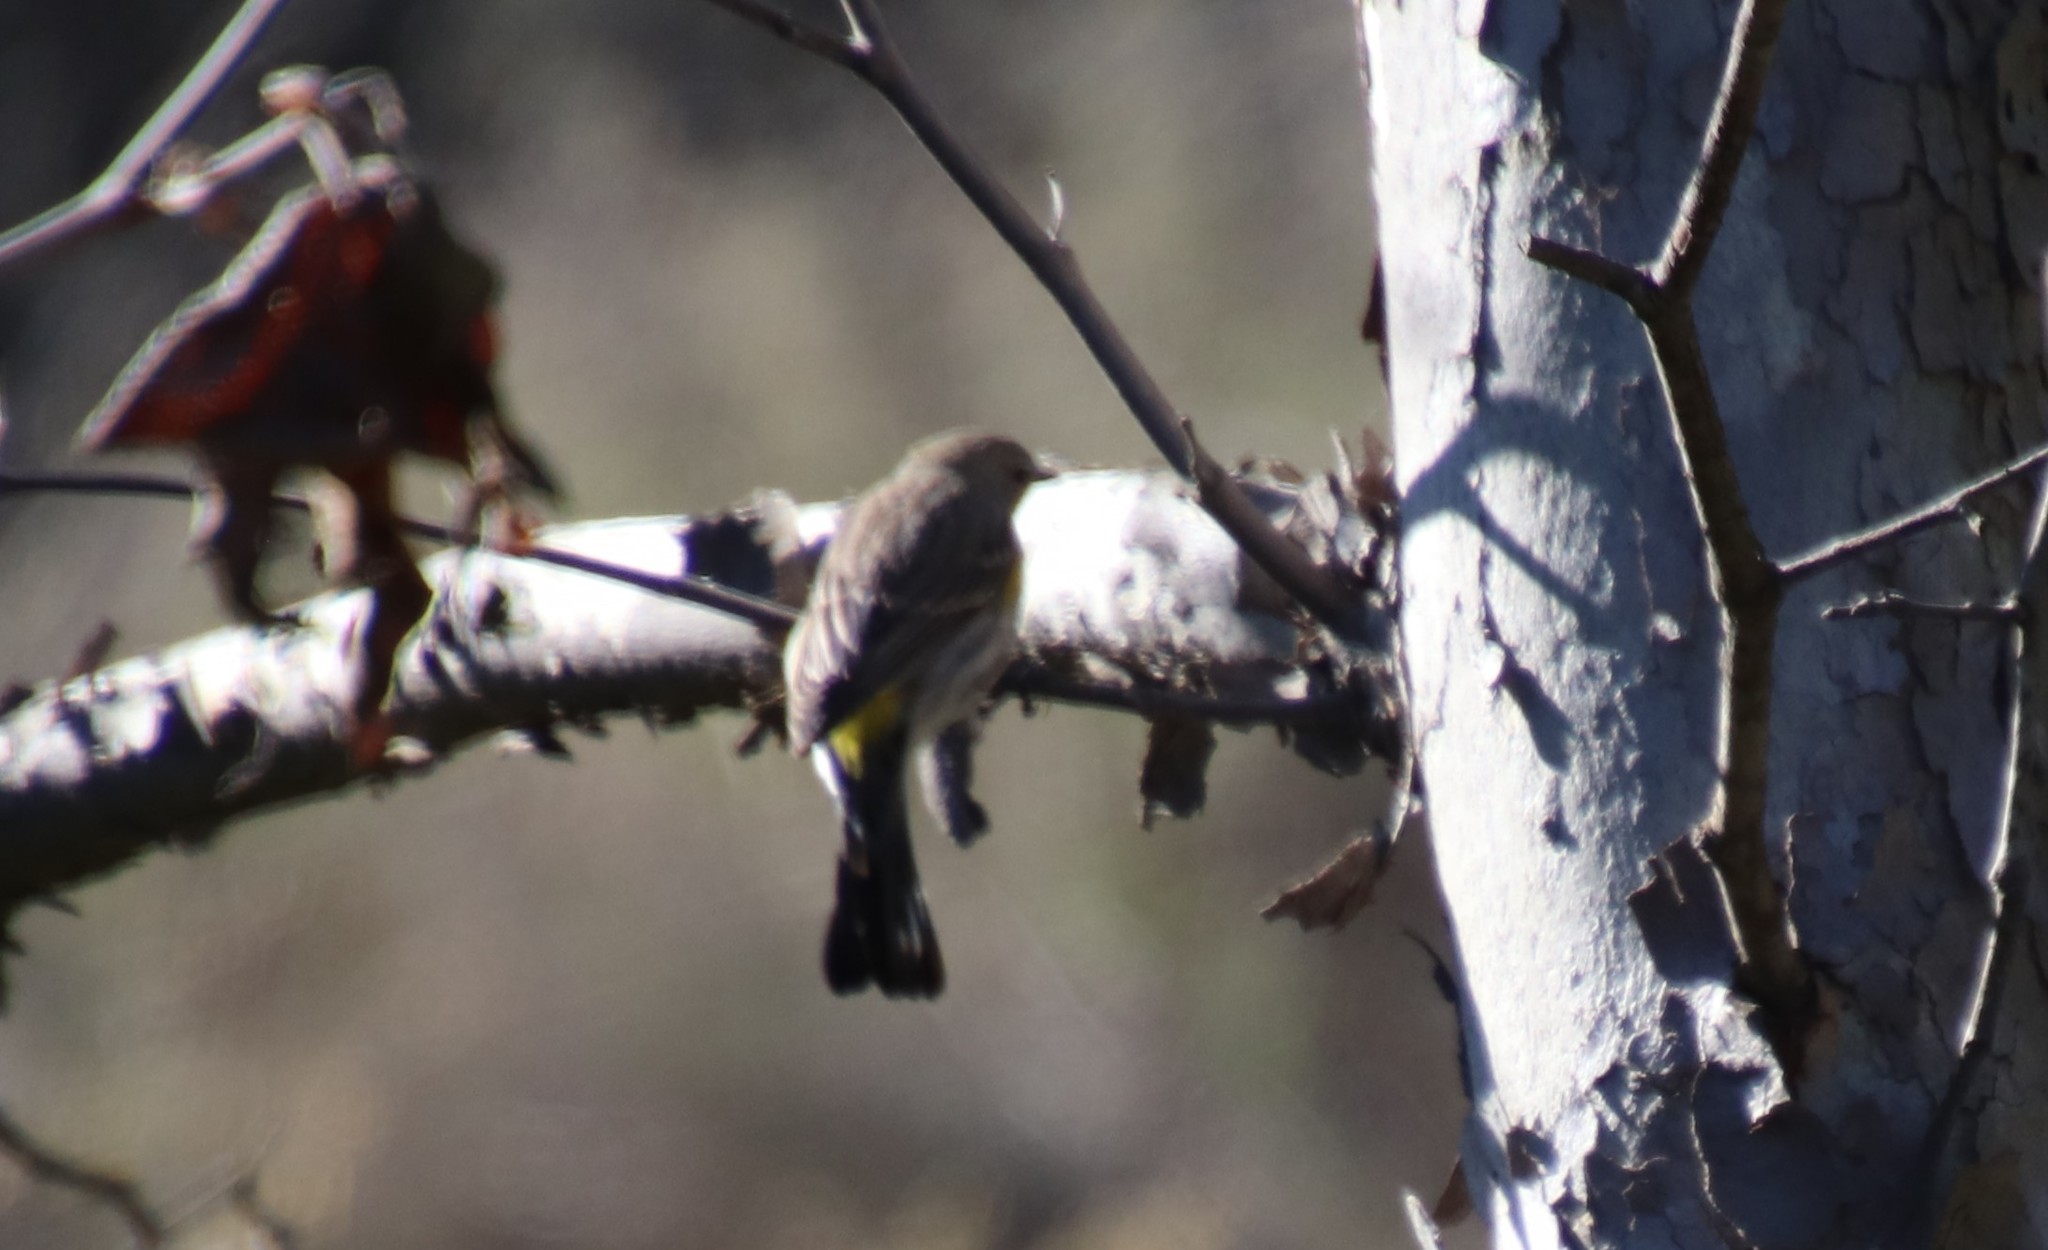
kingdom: Animalia
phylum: Chordata
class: Aves
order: Passeriformes
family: Parulidae
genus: Setophaga
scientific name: Setophaga coronata
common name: Myrtle warbler
